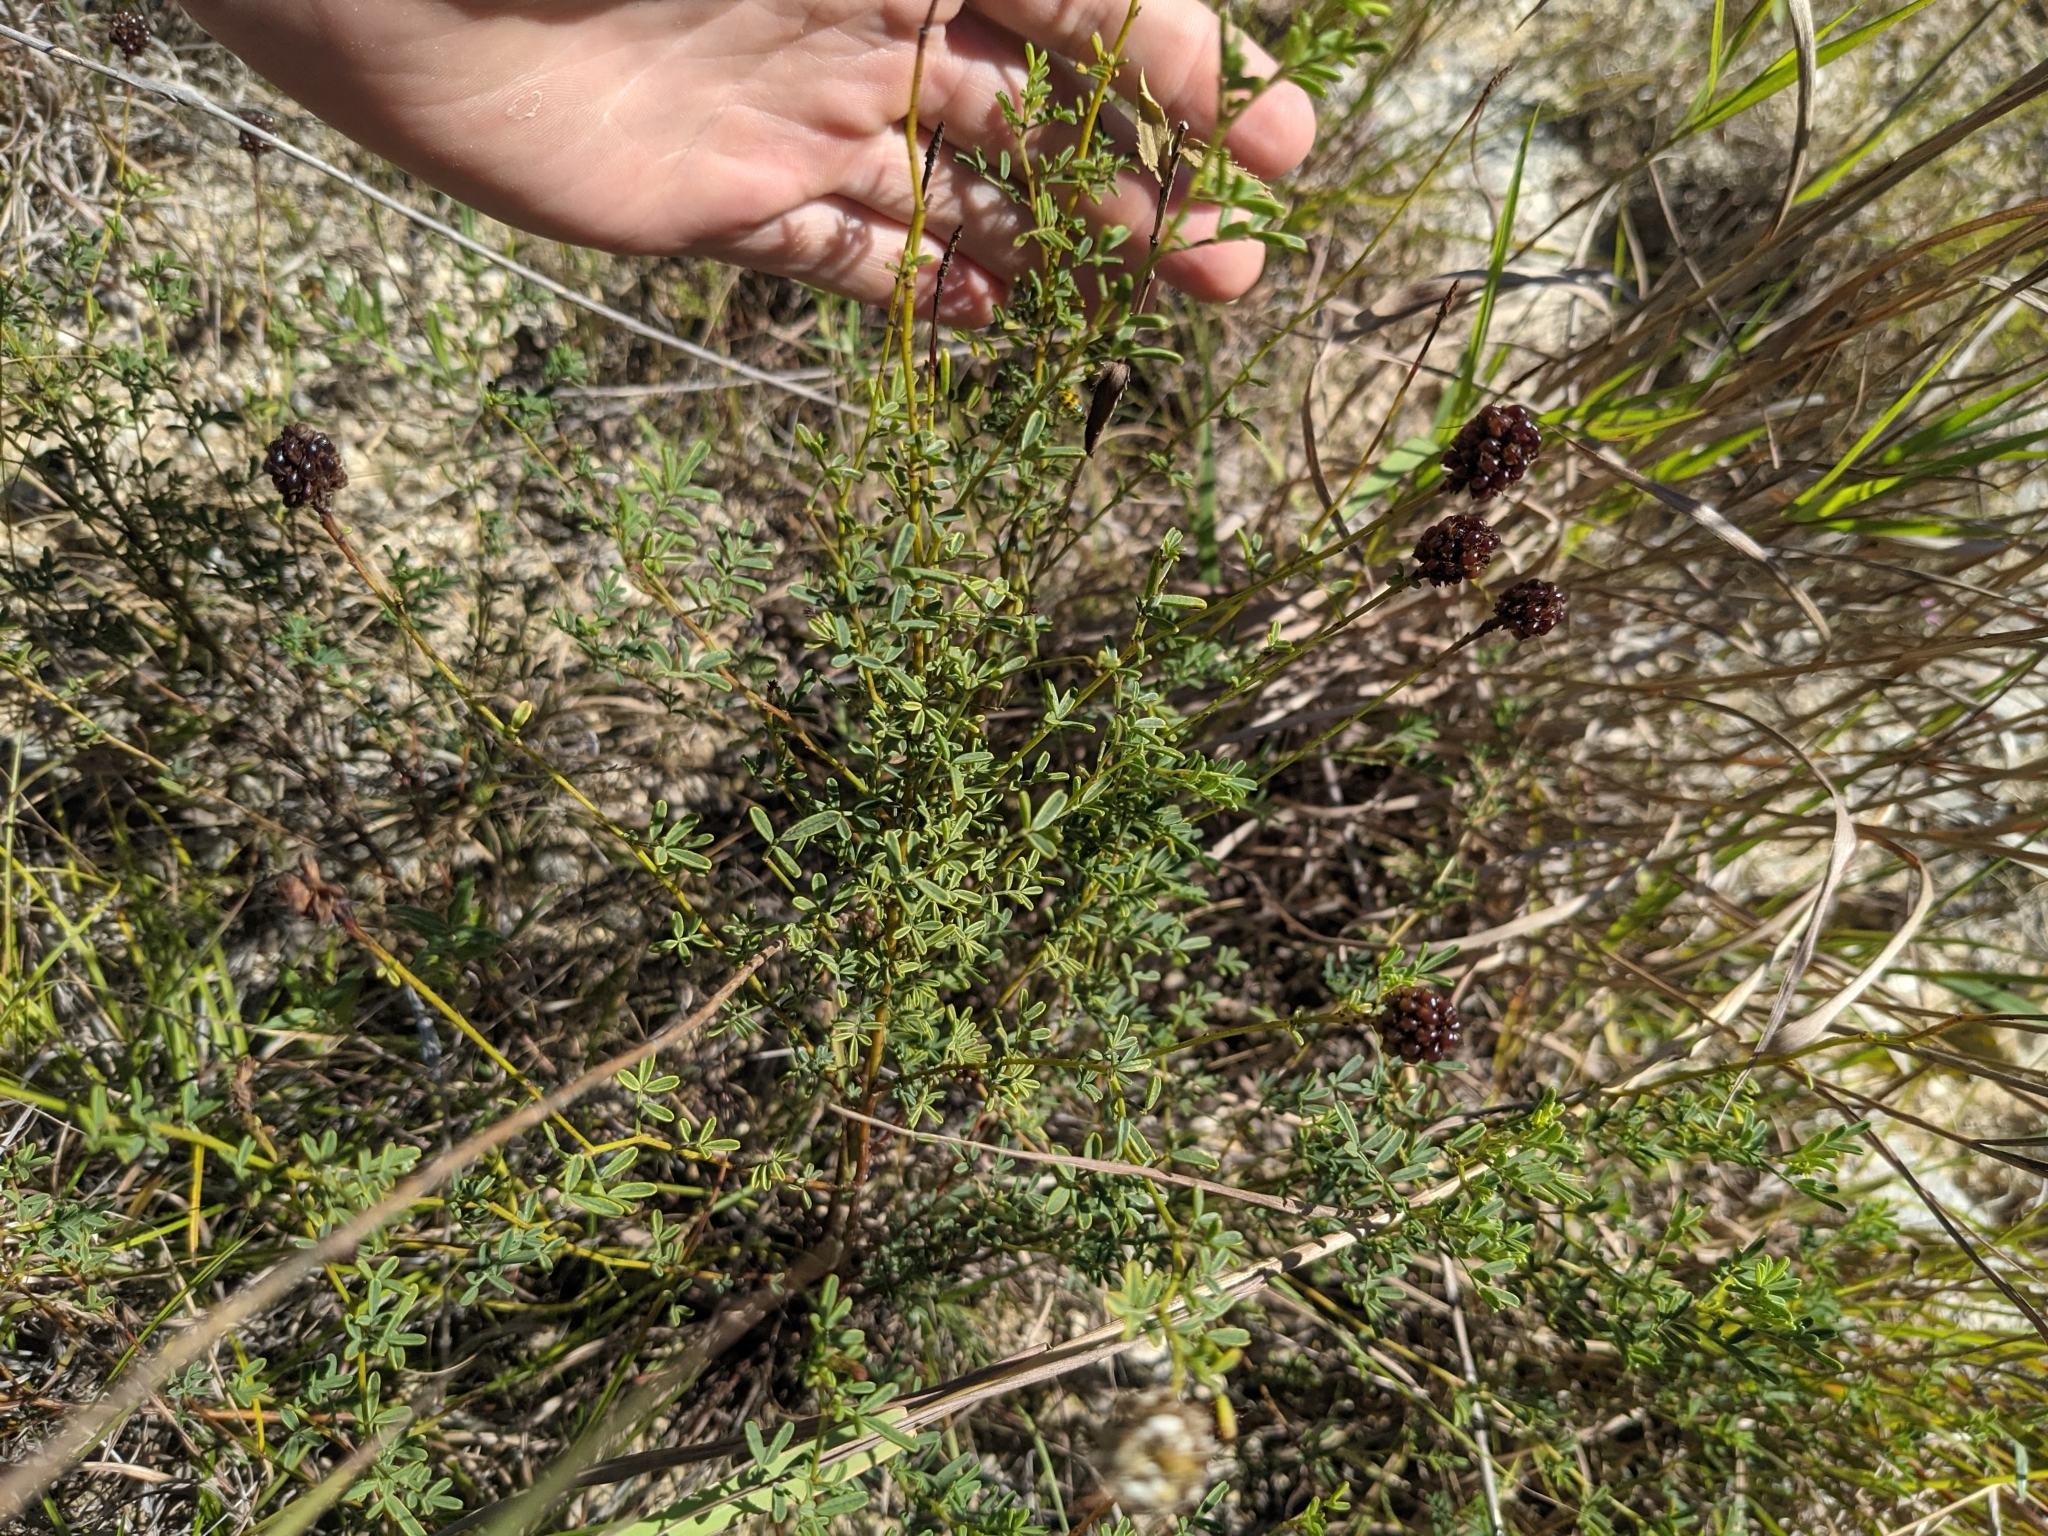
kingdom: Plantae
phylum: Tracheophyta
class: Magnoliopsida
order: Fabales
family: Fabaceae
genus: Dalea
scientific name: Dalea multiflora
